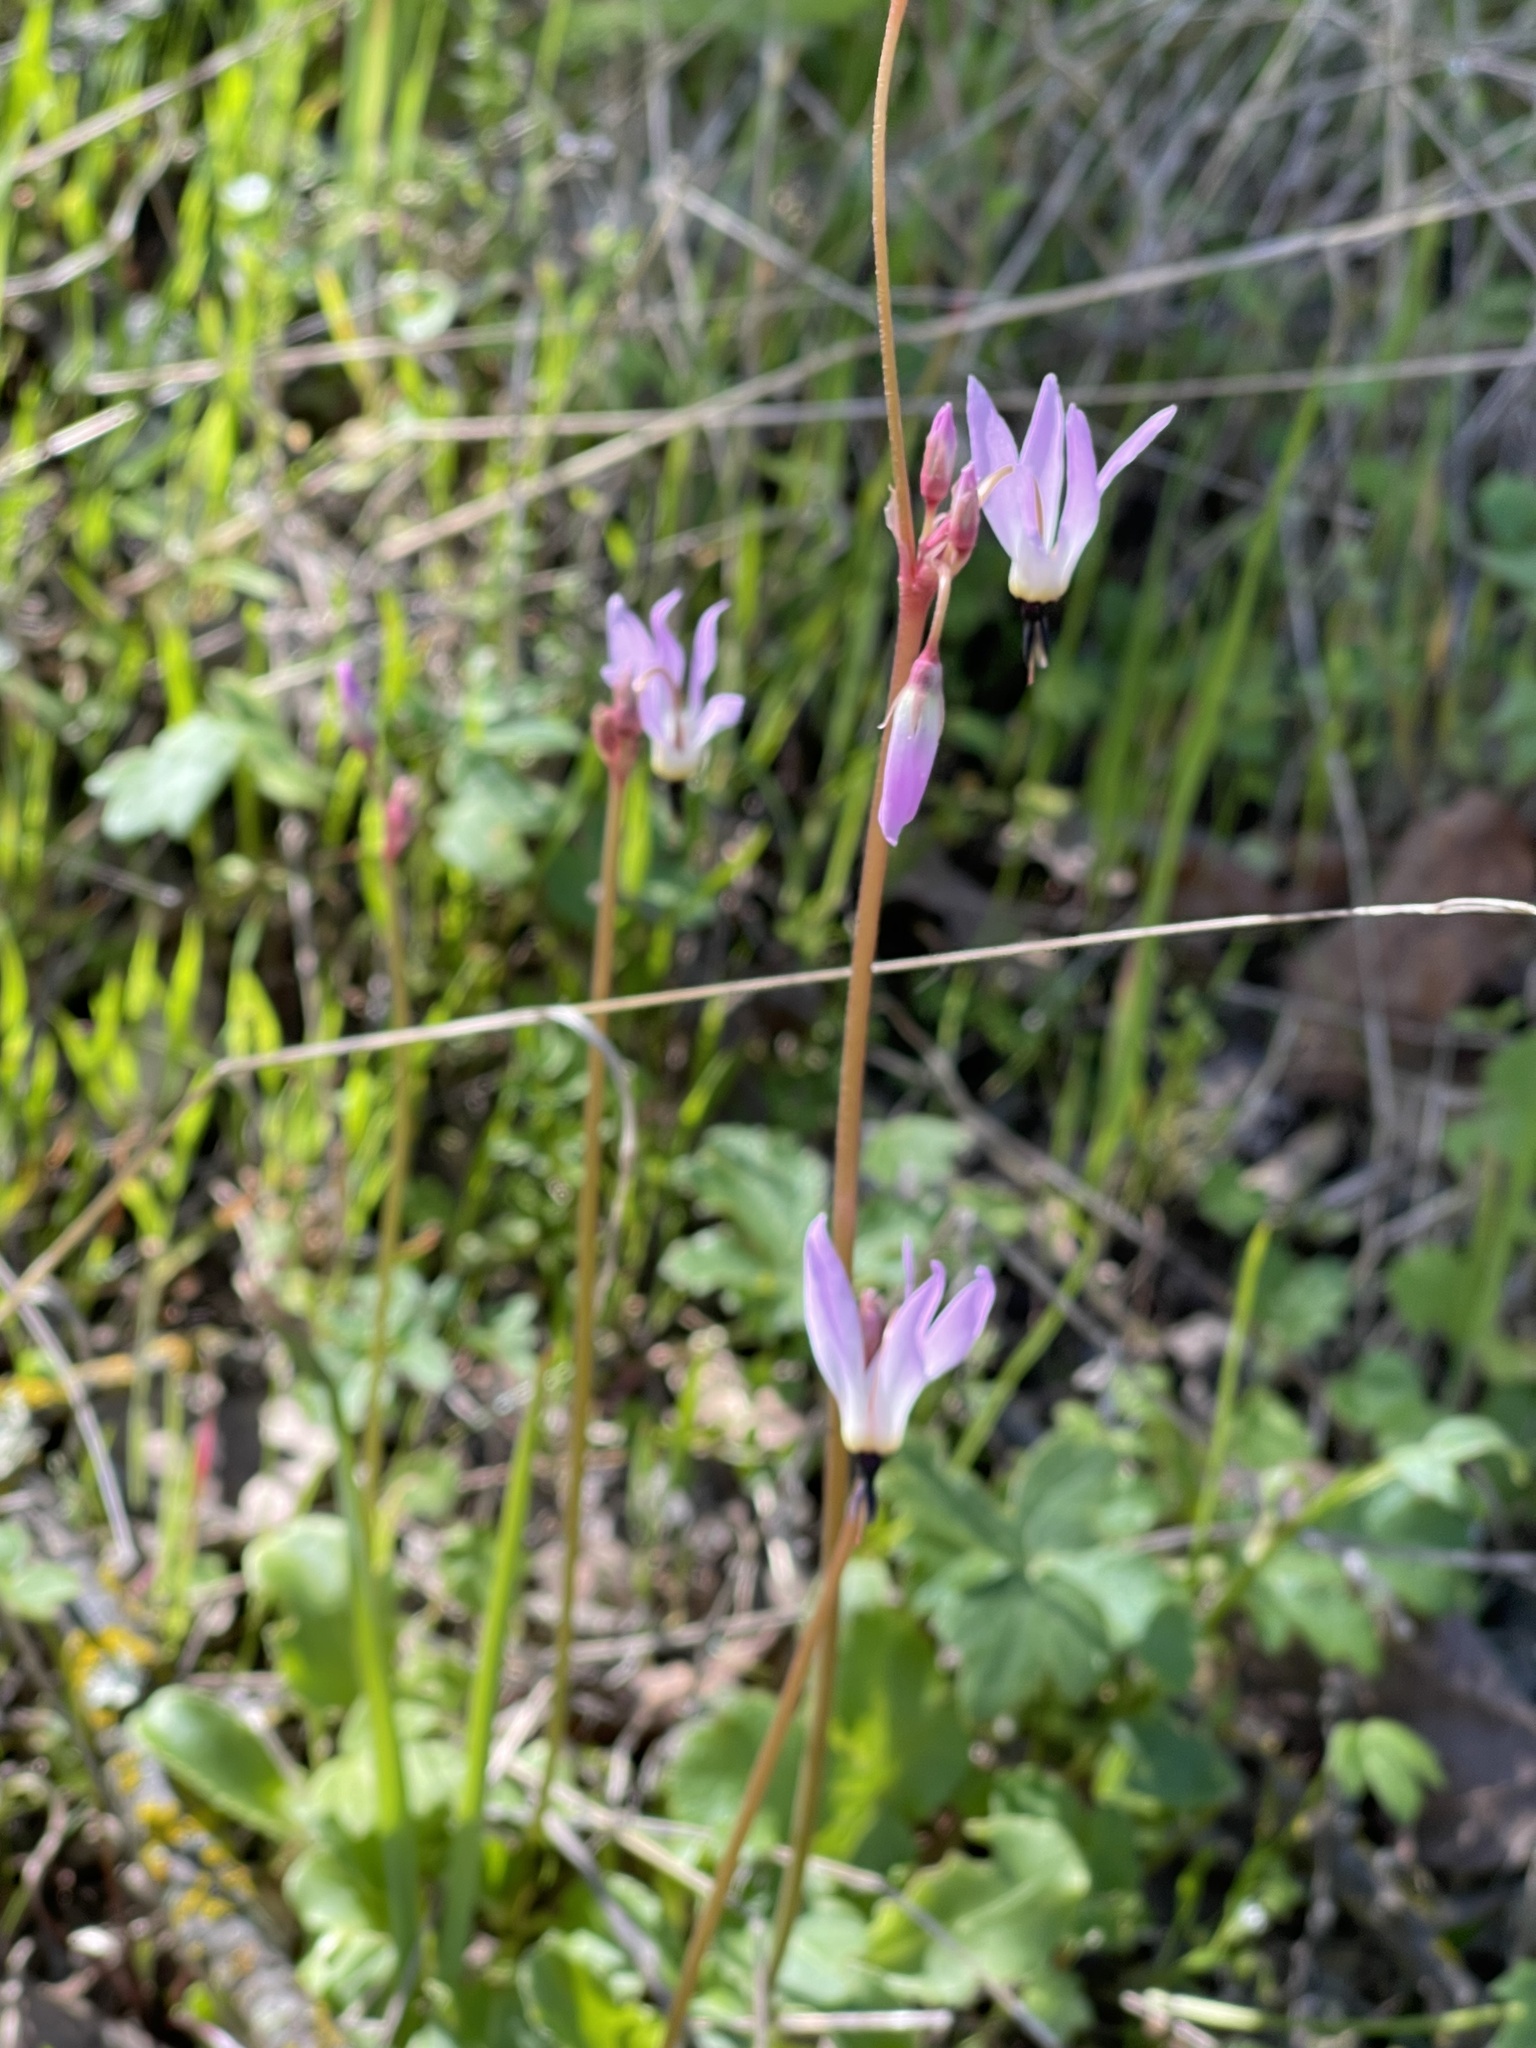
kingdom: Plantae
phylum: Tracheophyta
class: Magnoliopsida
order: Ericales
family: Primulaceae
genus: Dodecatheon
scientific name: Dodecatheon hendersonii
